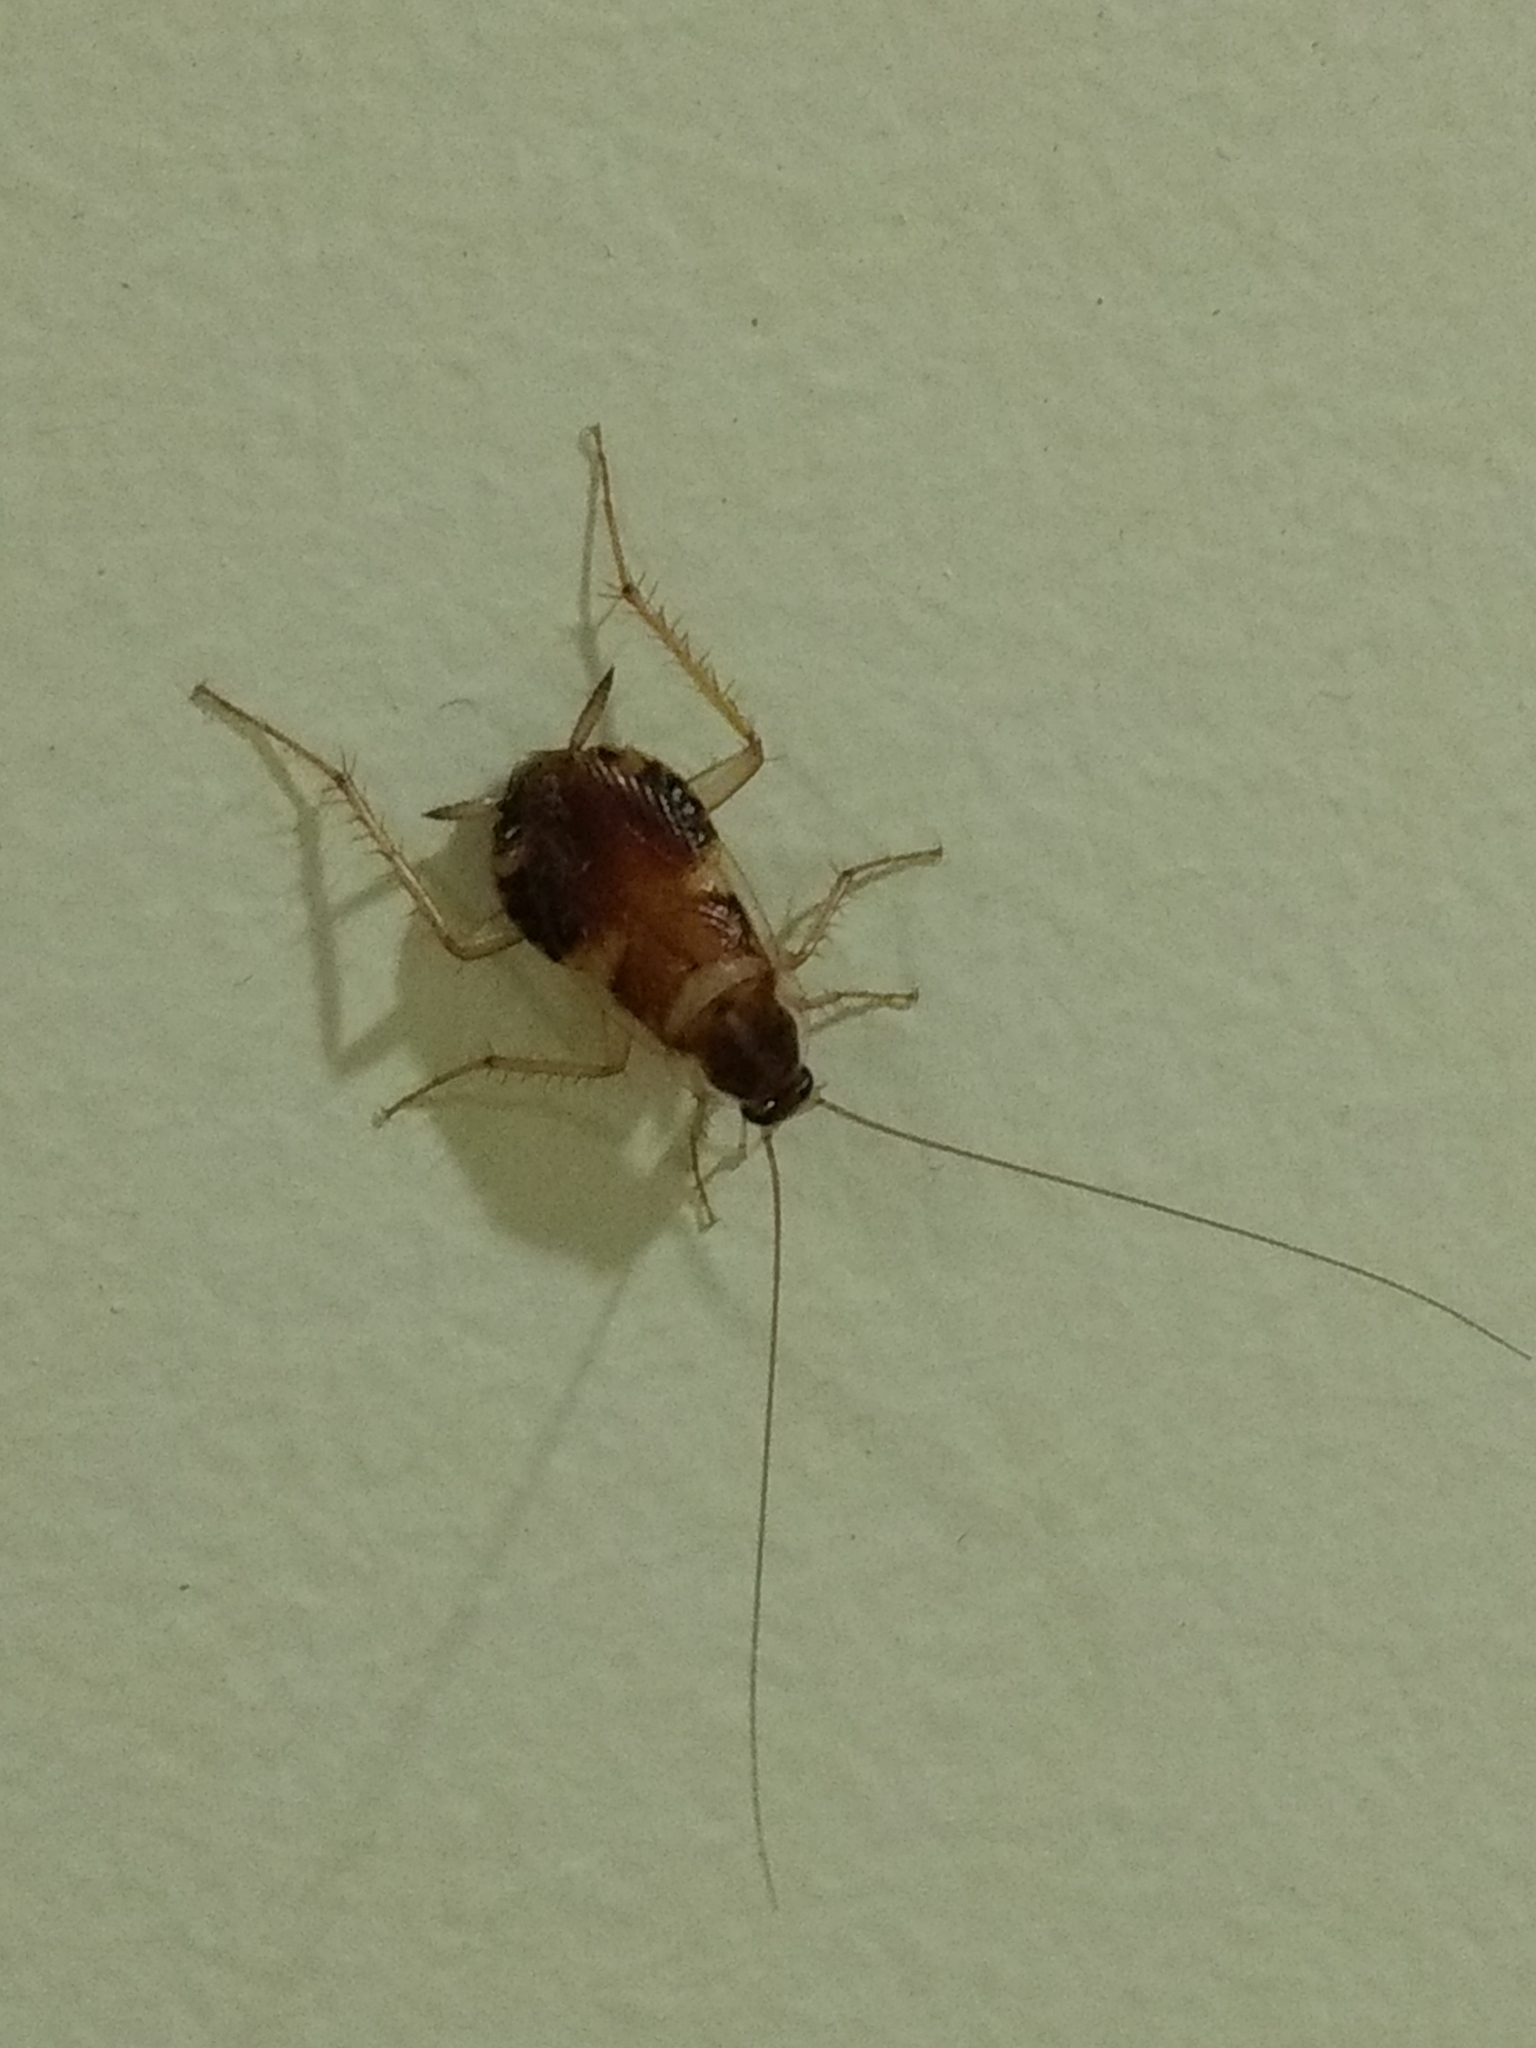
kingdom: Animalia
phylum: Arthropoda
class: Insecta
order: Blattodea
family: Ectobiidae
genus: Supella
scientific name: Supella longipalpa
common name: Brown-banded cockroach
